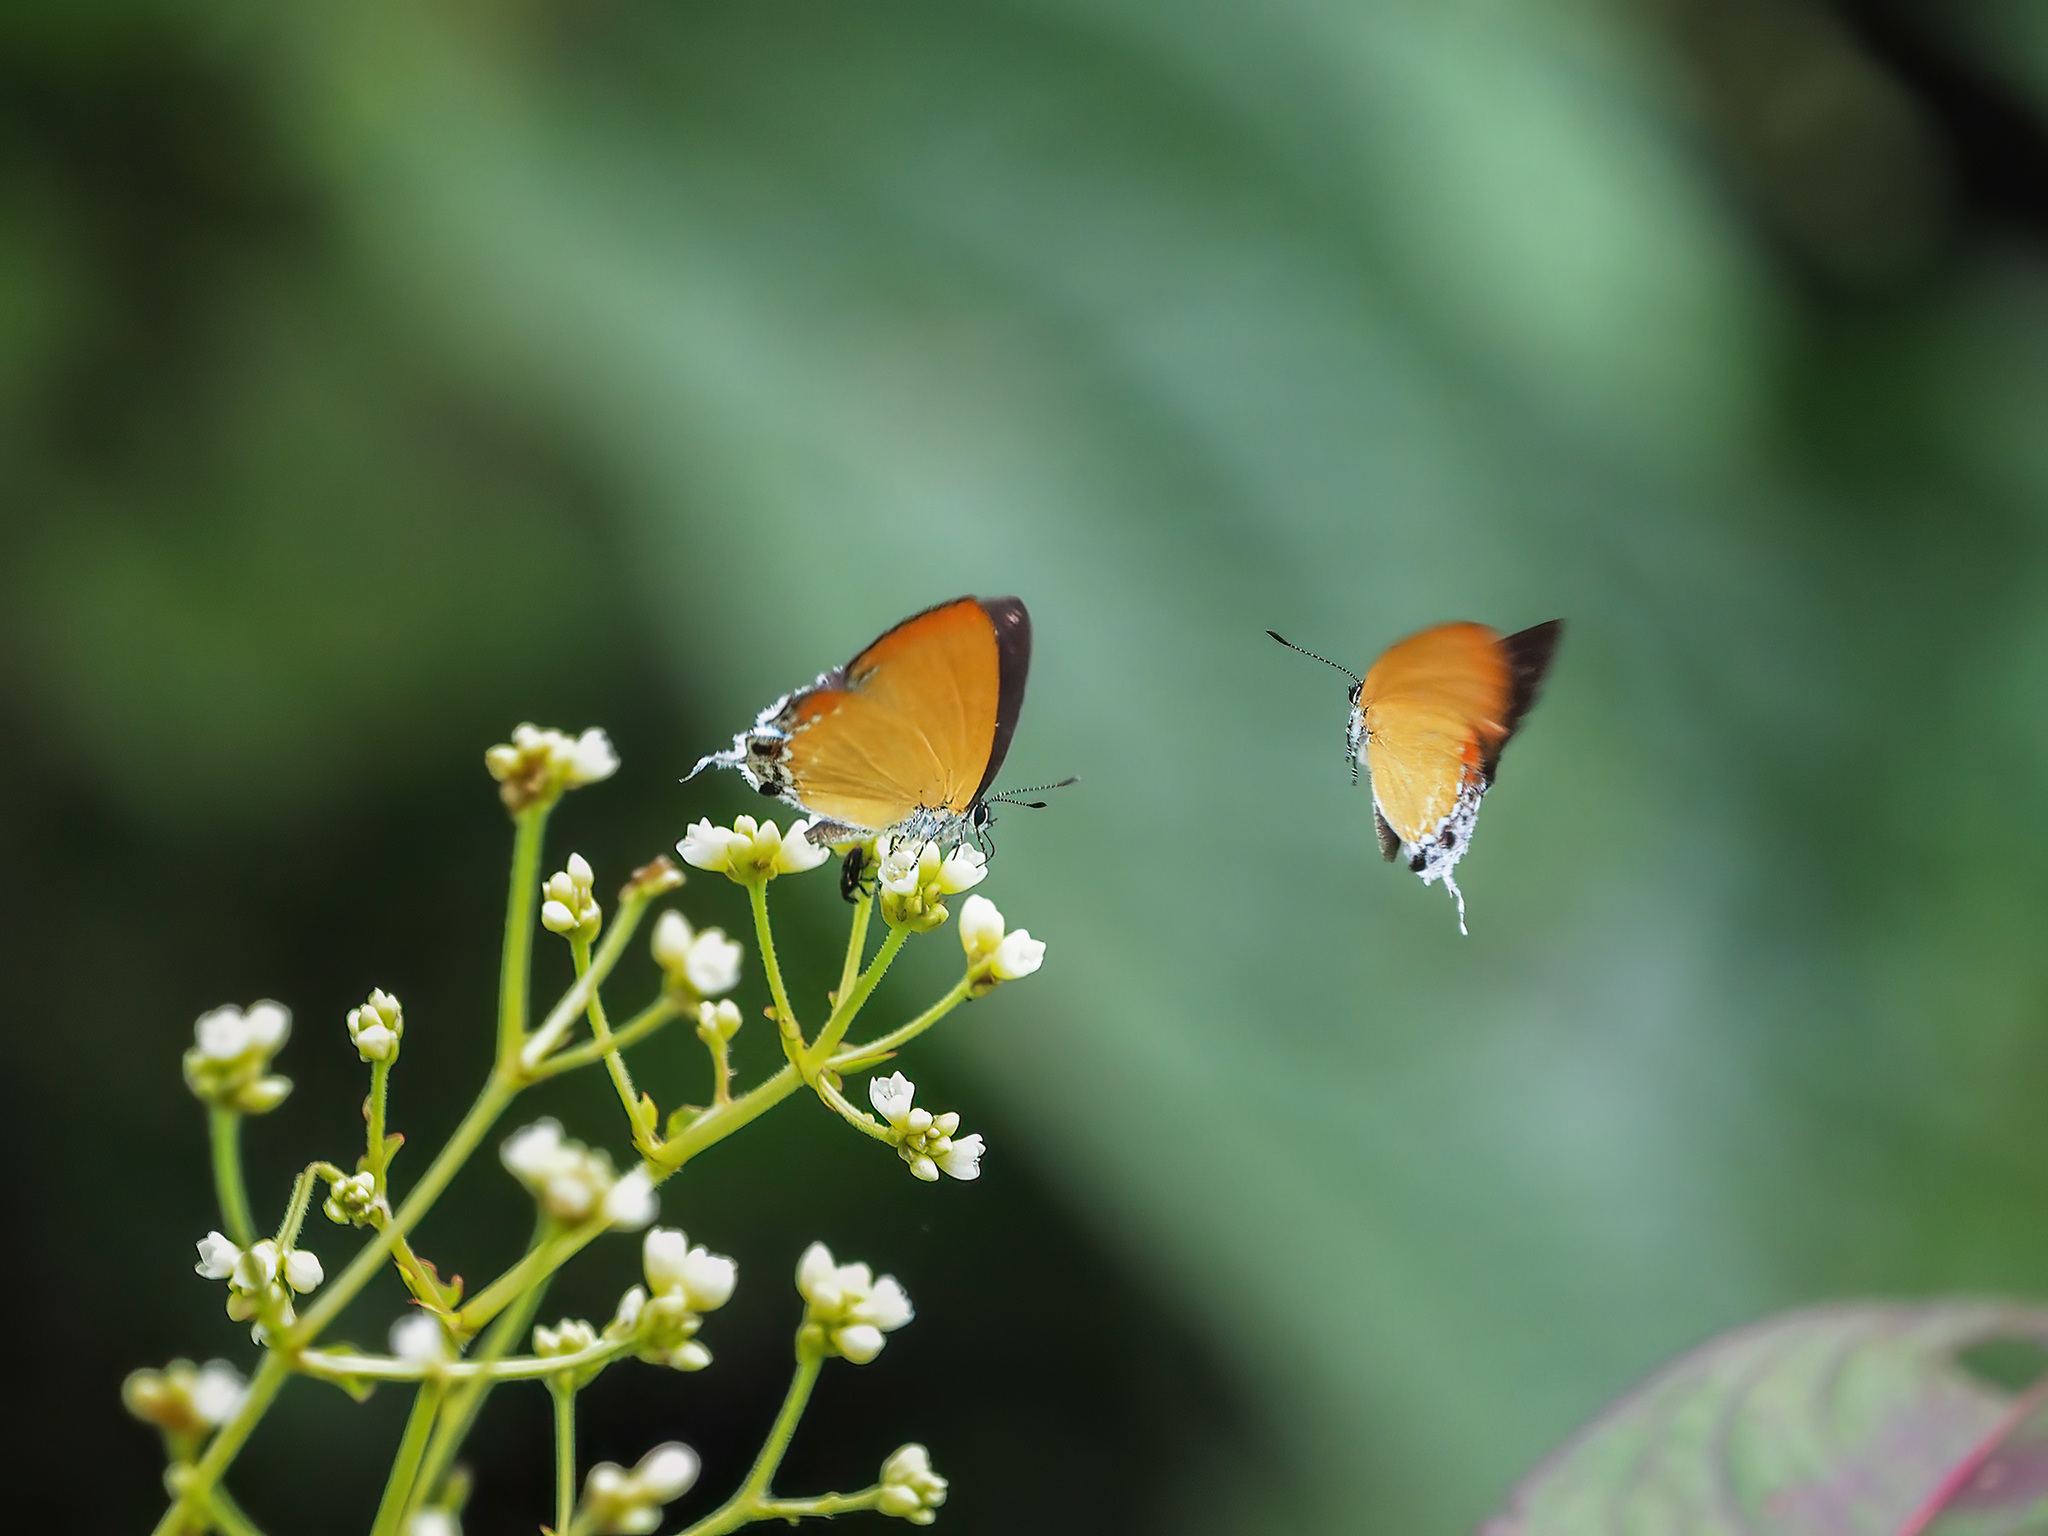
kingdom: Animalia
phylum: Arthropoda
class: Insecta
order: Lepidoptera
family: Lycaenidae
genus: Heliophorus
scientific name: Heliophorus
